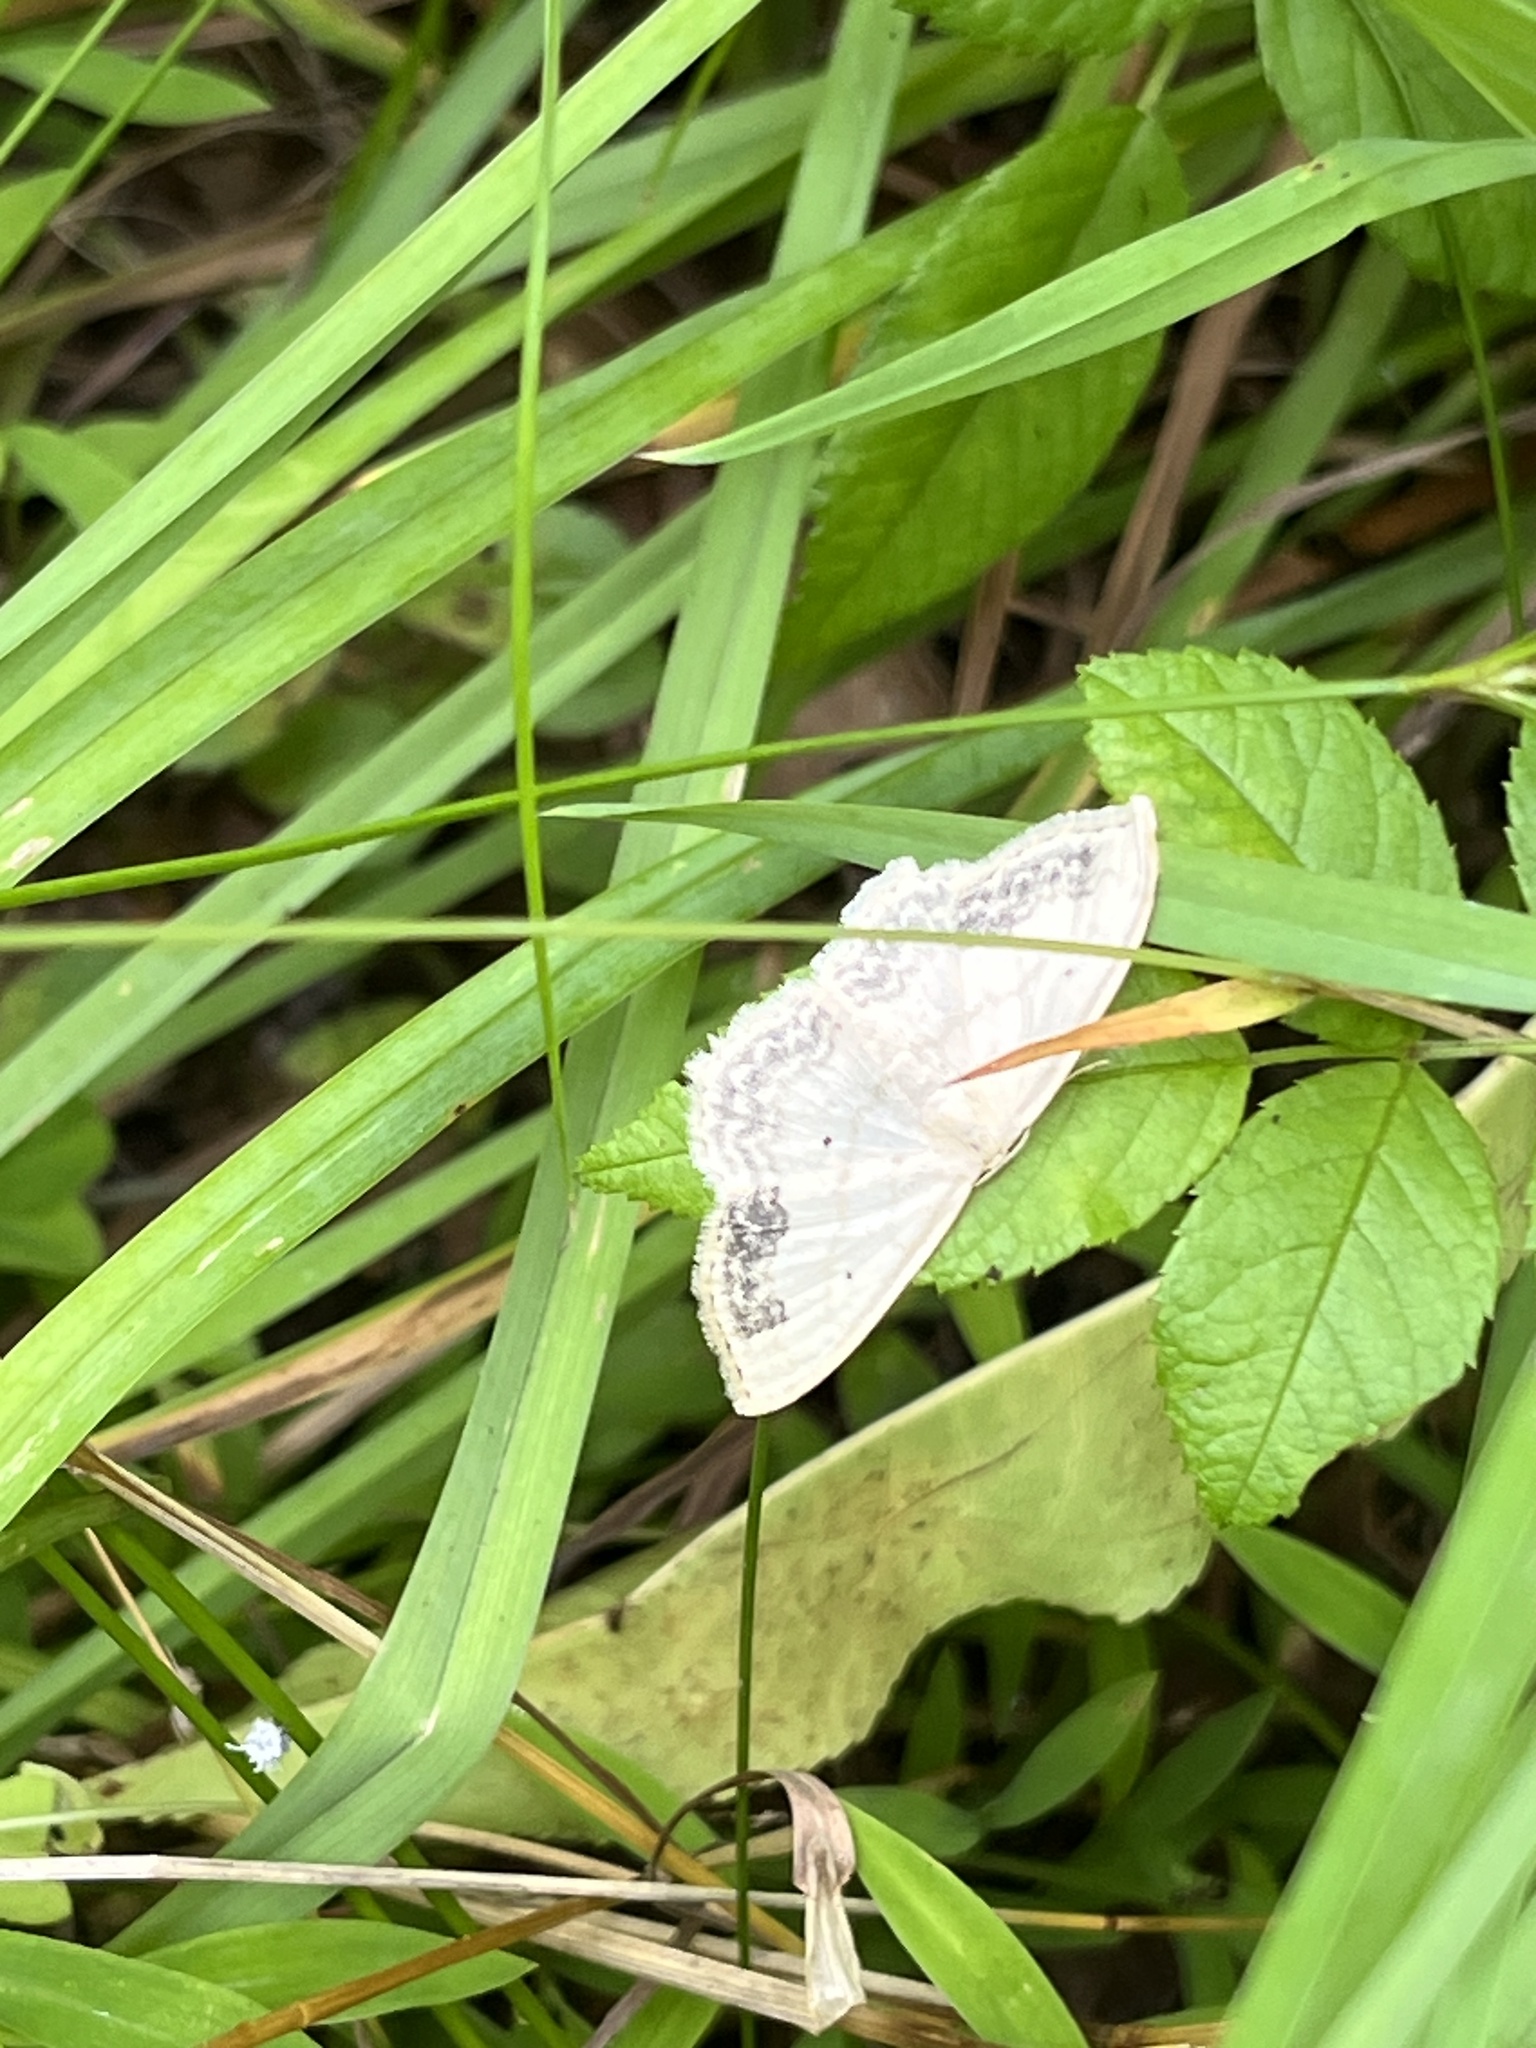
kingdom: Animalia
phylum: Arthropoda
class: Insecta
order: Lepidoptera
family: Geometridae
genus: Scopula
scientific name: Scopula limboundata
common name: Large lace border
